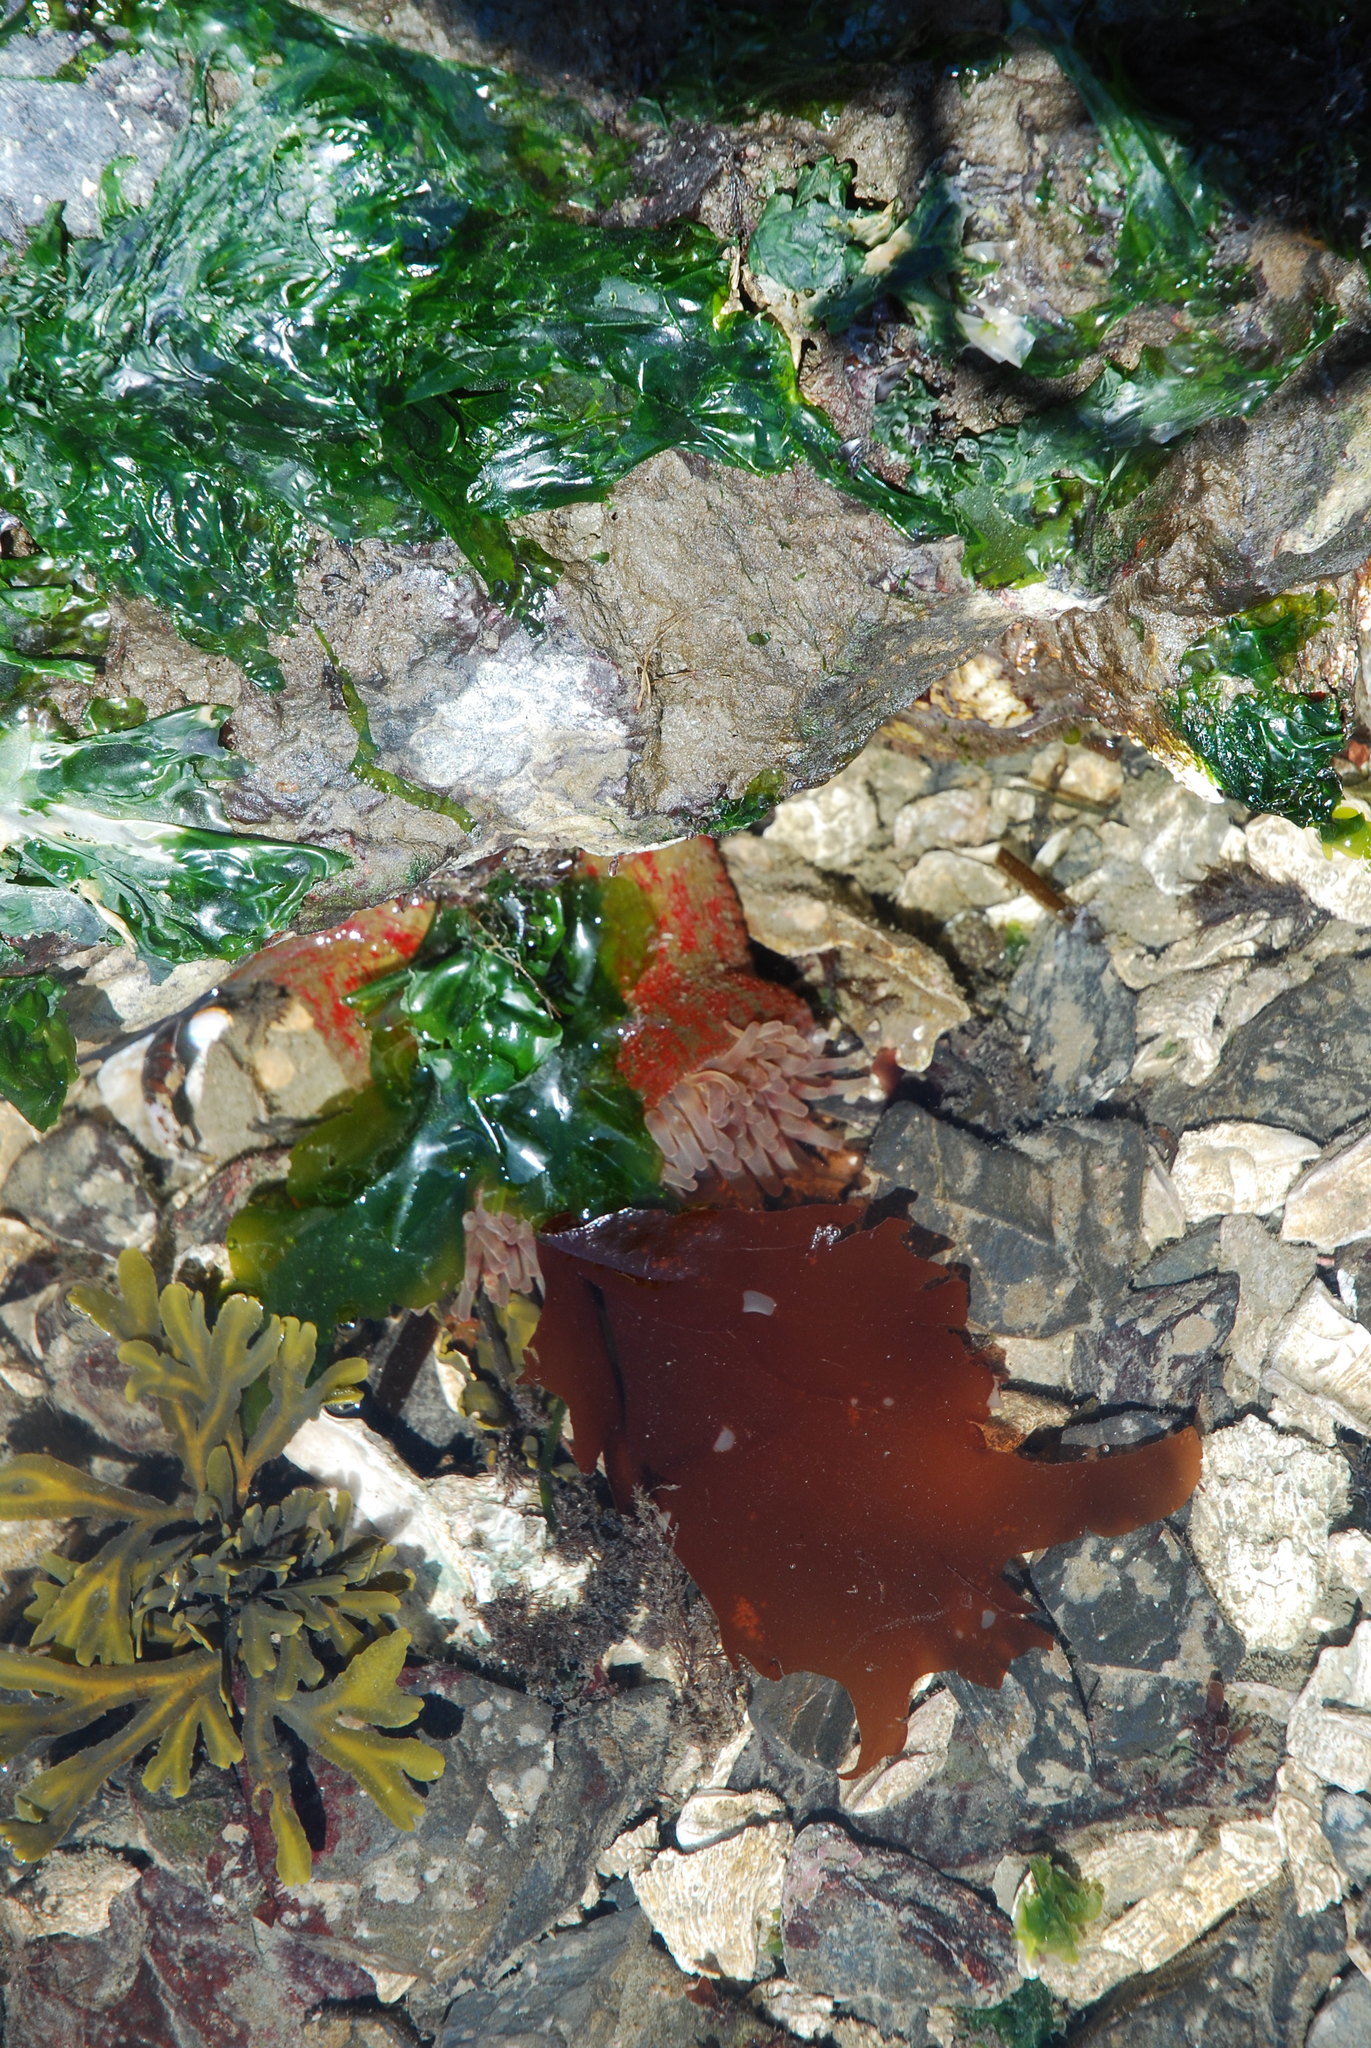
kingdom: Animalia
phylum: Cnidaria
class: Anthozoa
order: Actiniaria
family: Actiniidae
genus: Urticina
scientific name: Urticina grebelnyi
